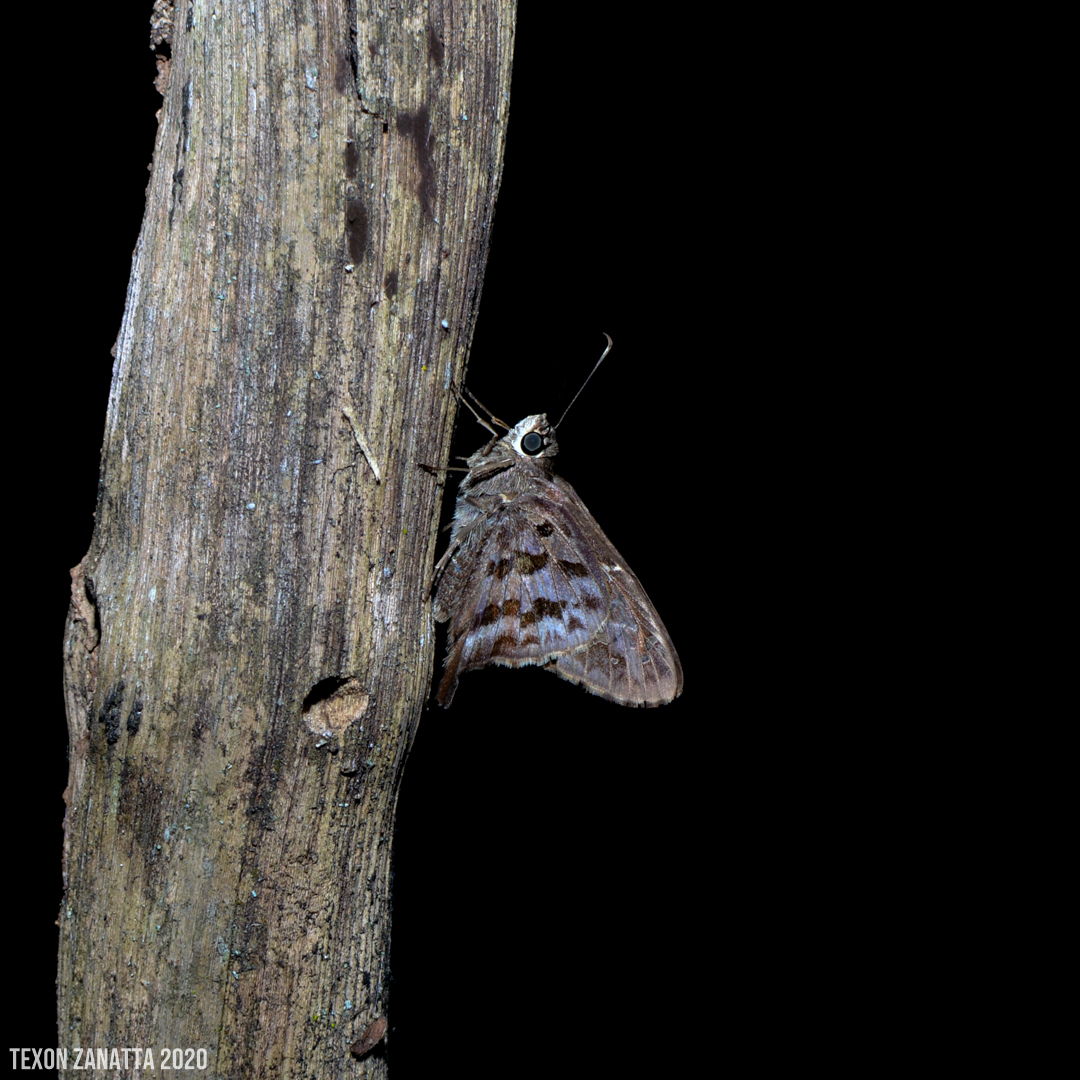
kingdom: Animalia
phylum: Arthropoda
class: Insecta
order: Lepidoptera
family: Hesperiidae
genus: Thorybes
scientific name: Thorybes
